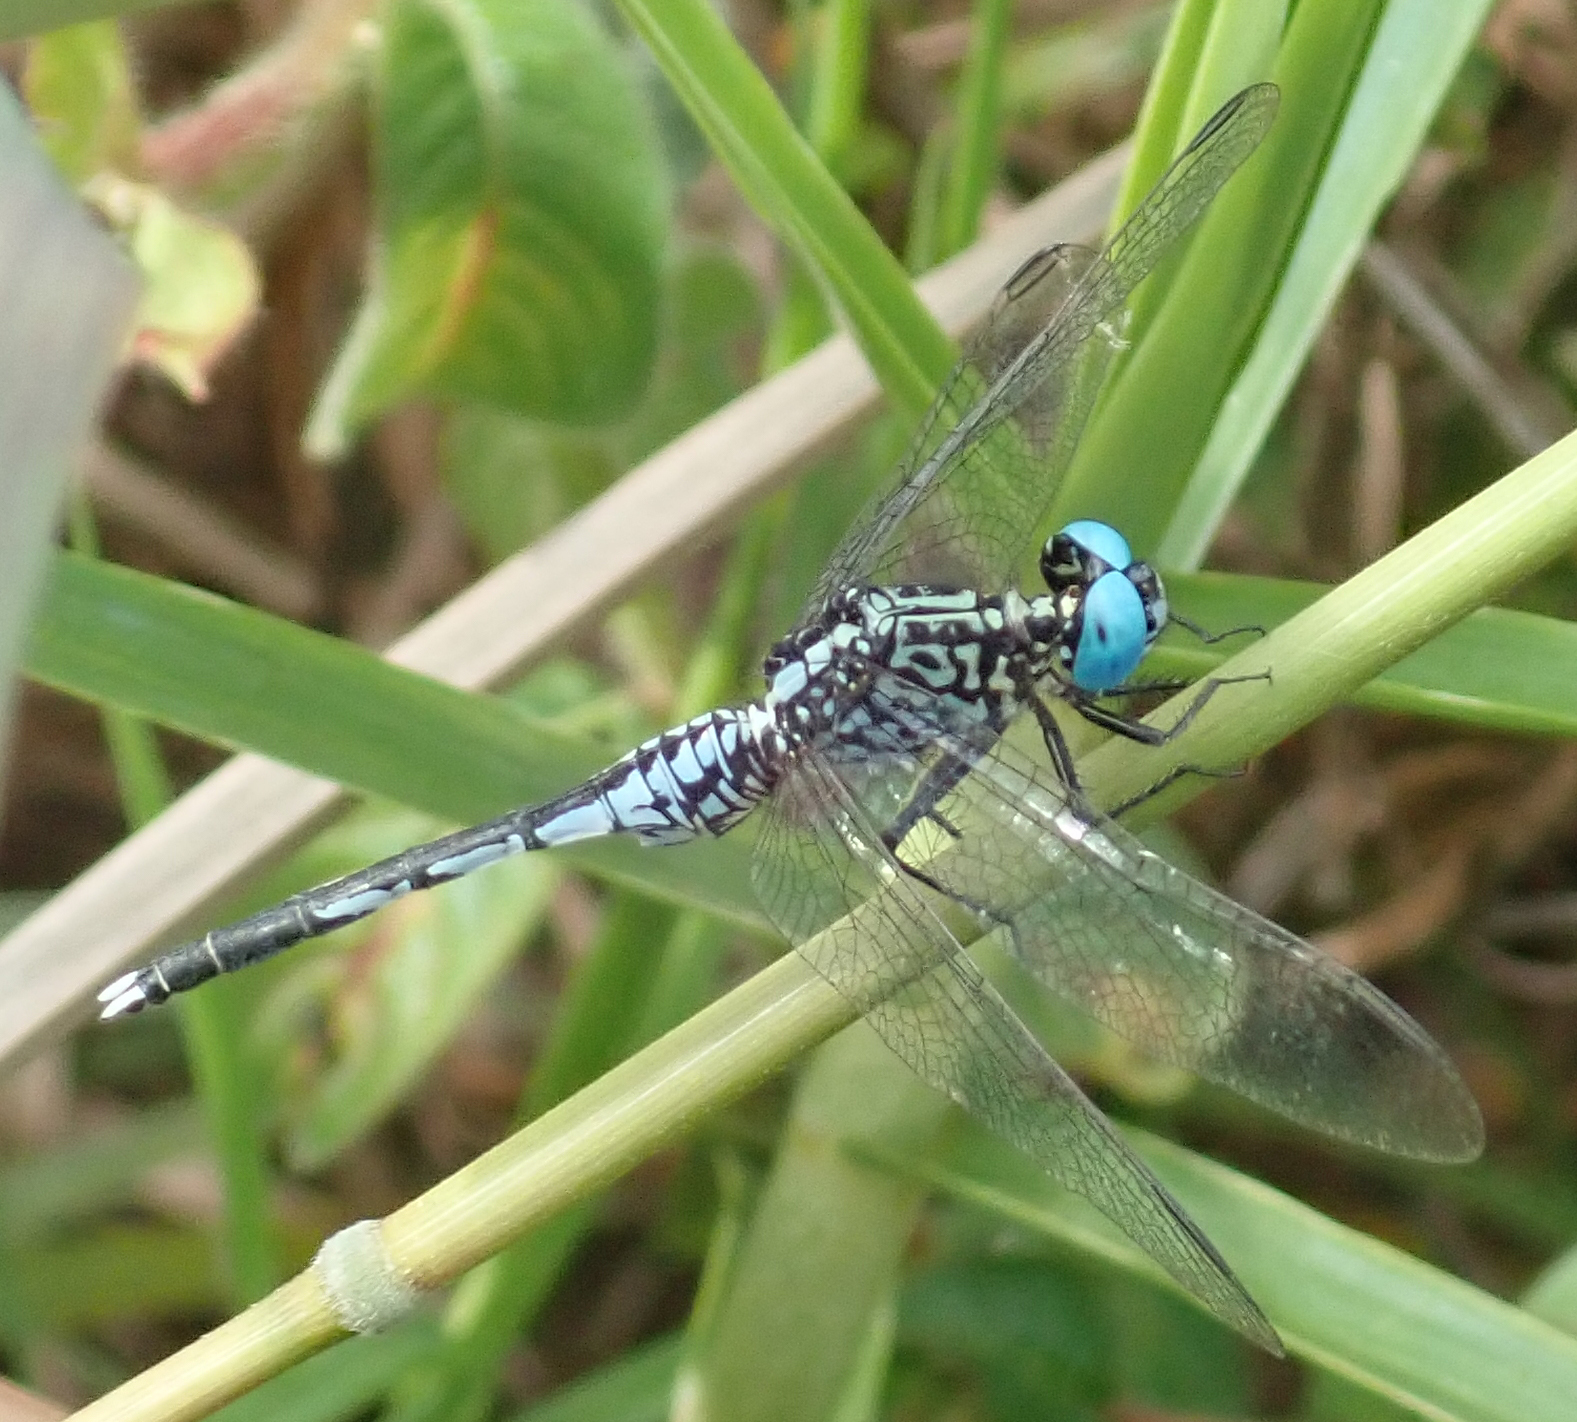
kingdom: Animalia
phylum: Arthropoda
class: Insecta
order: Odonata
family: Libellulidae
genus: Acisoma
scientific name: Acisoma variegatum
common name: Slender pintail
